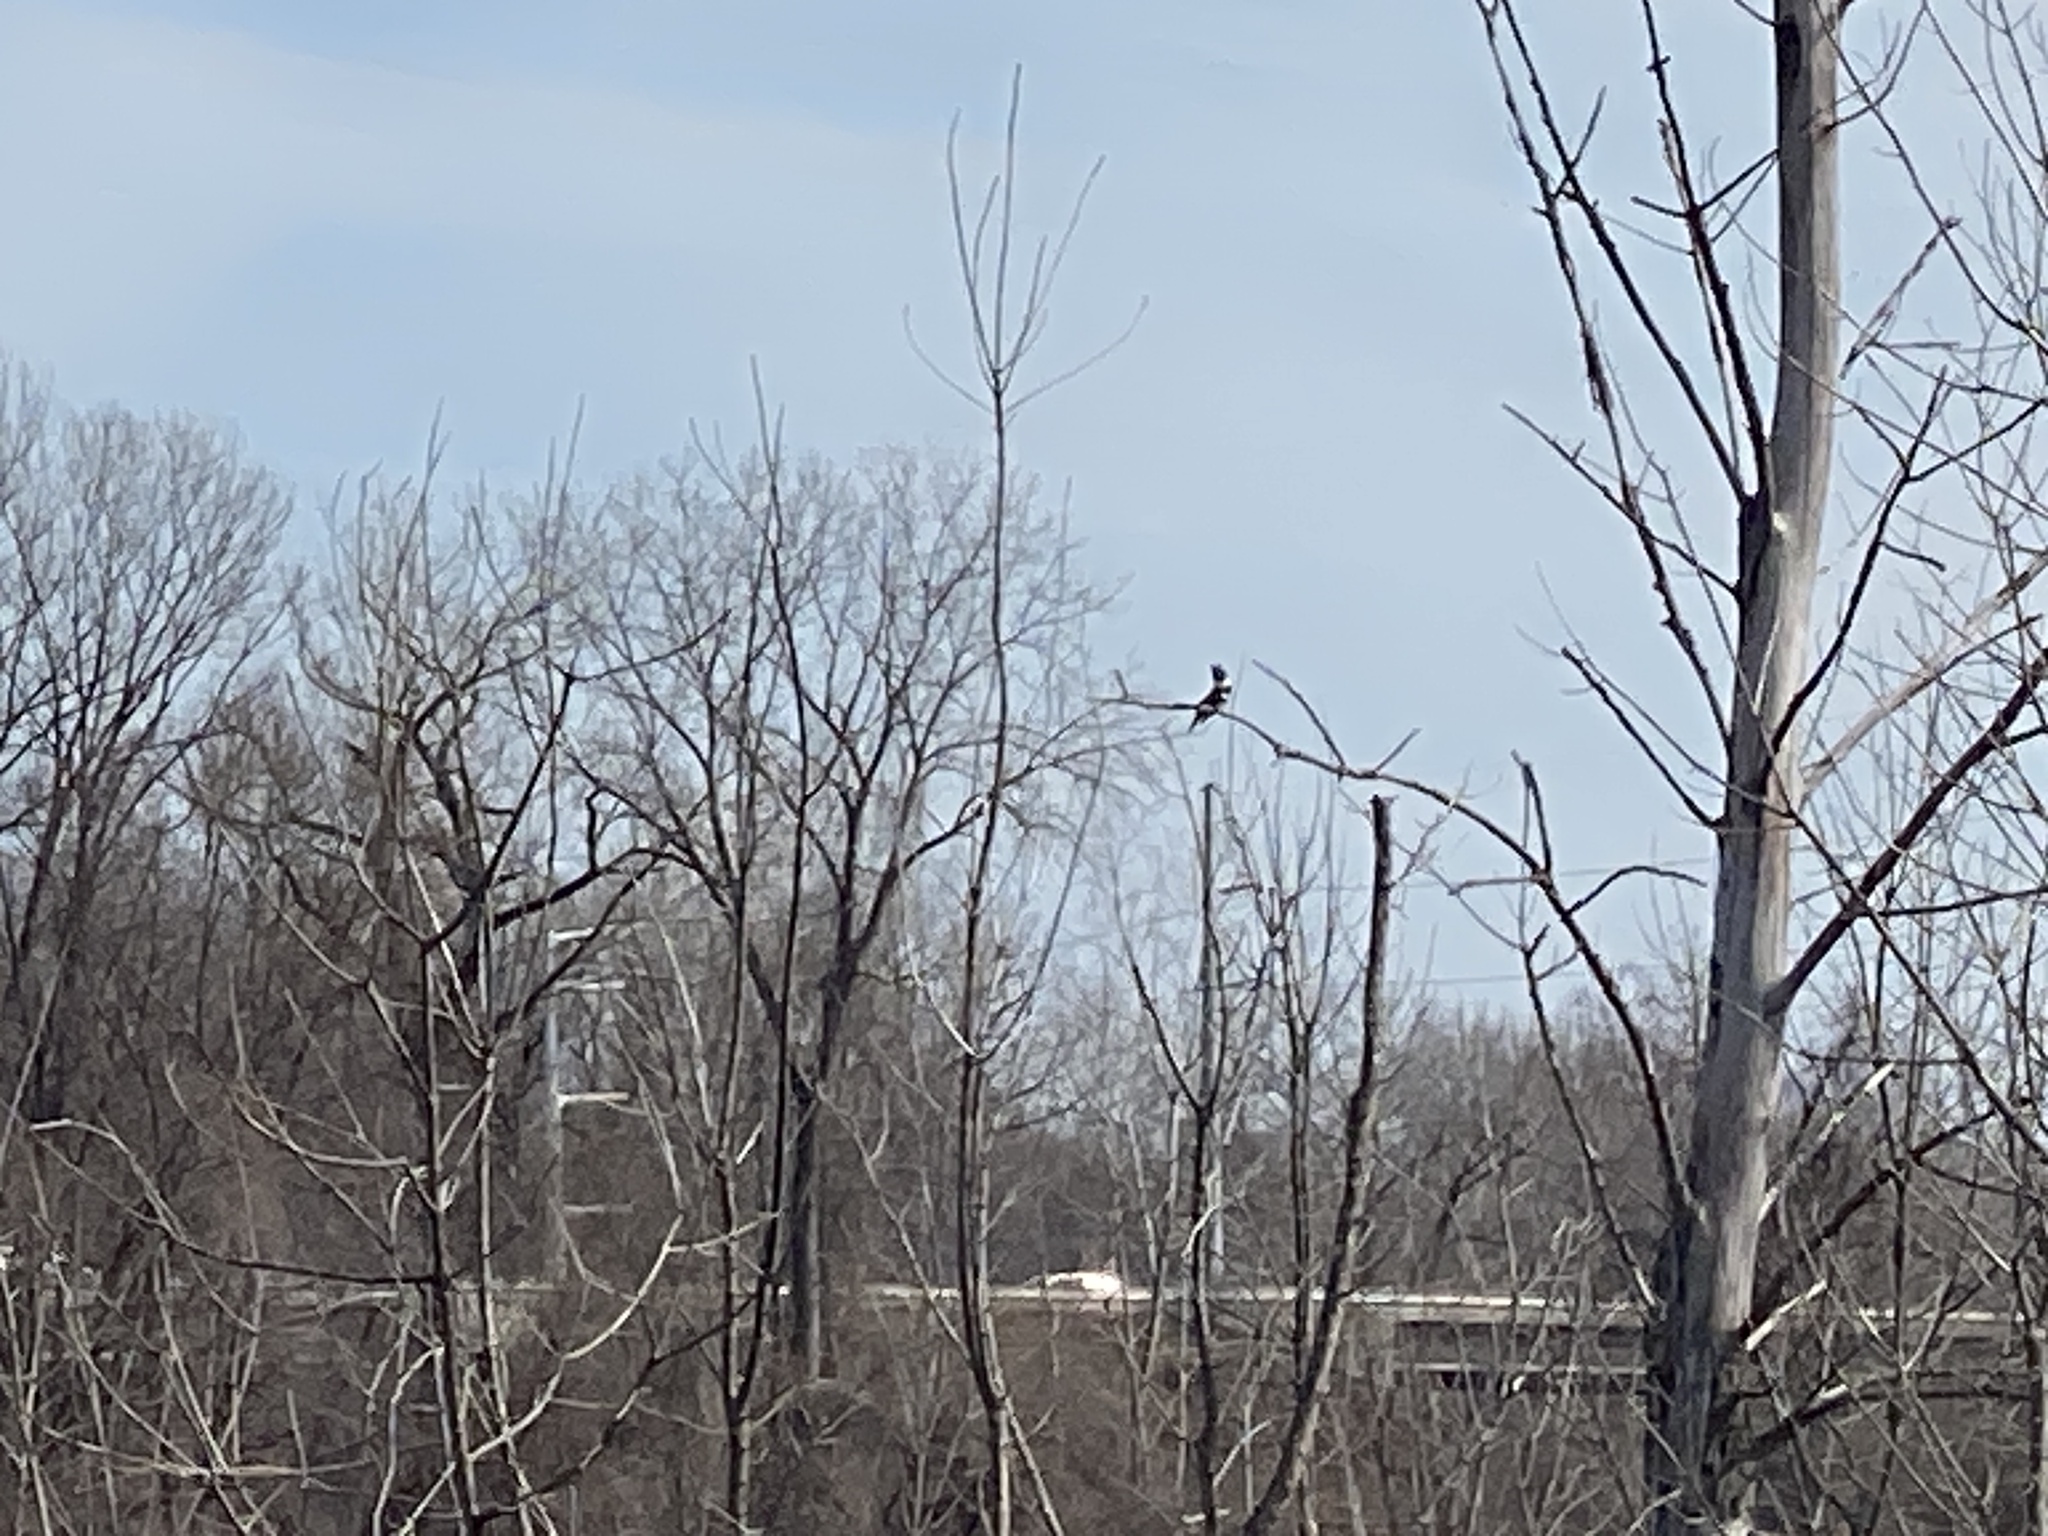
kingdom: Animalia
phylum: Chordata
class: Aves
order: Coraciiformes
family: Alcedinidae
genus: Megaceryle
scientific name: Megaceryle alcyon
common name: Belted kingfisher
